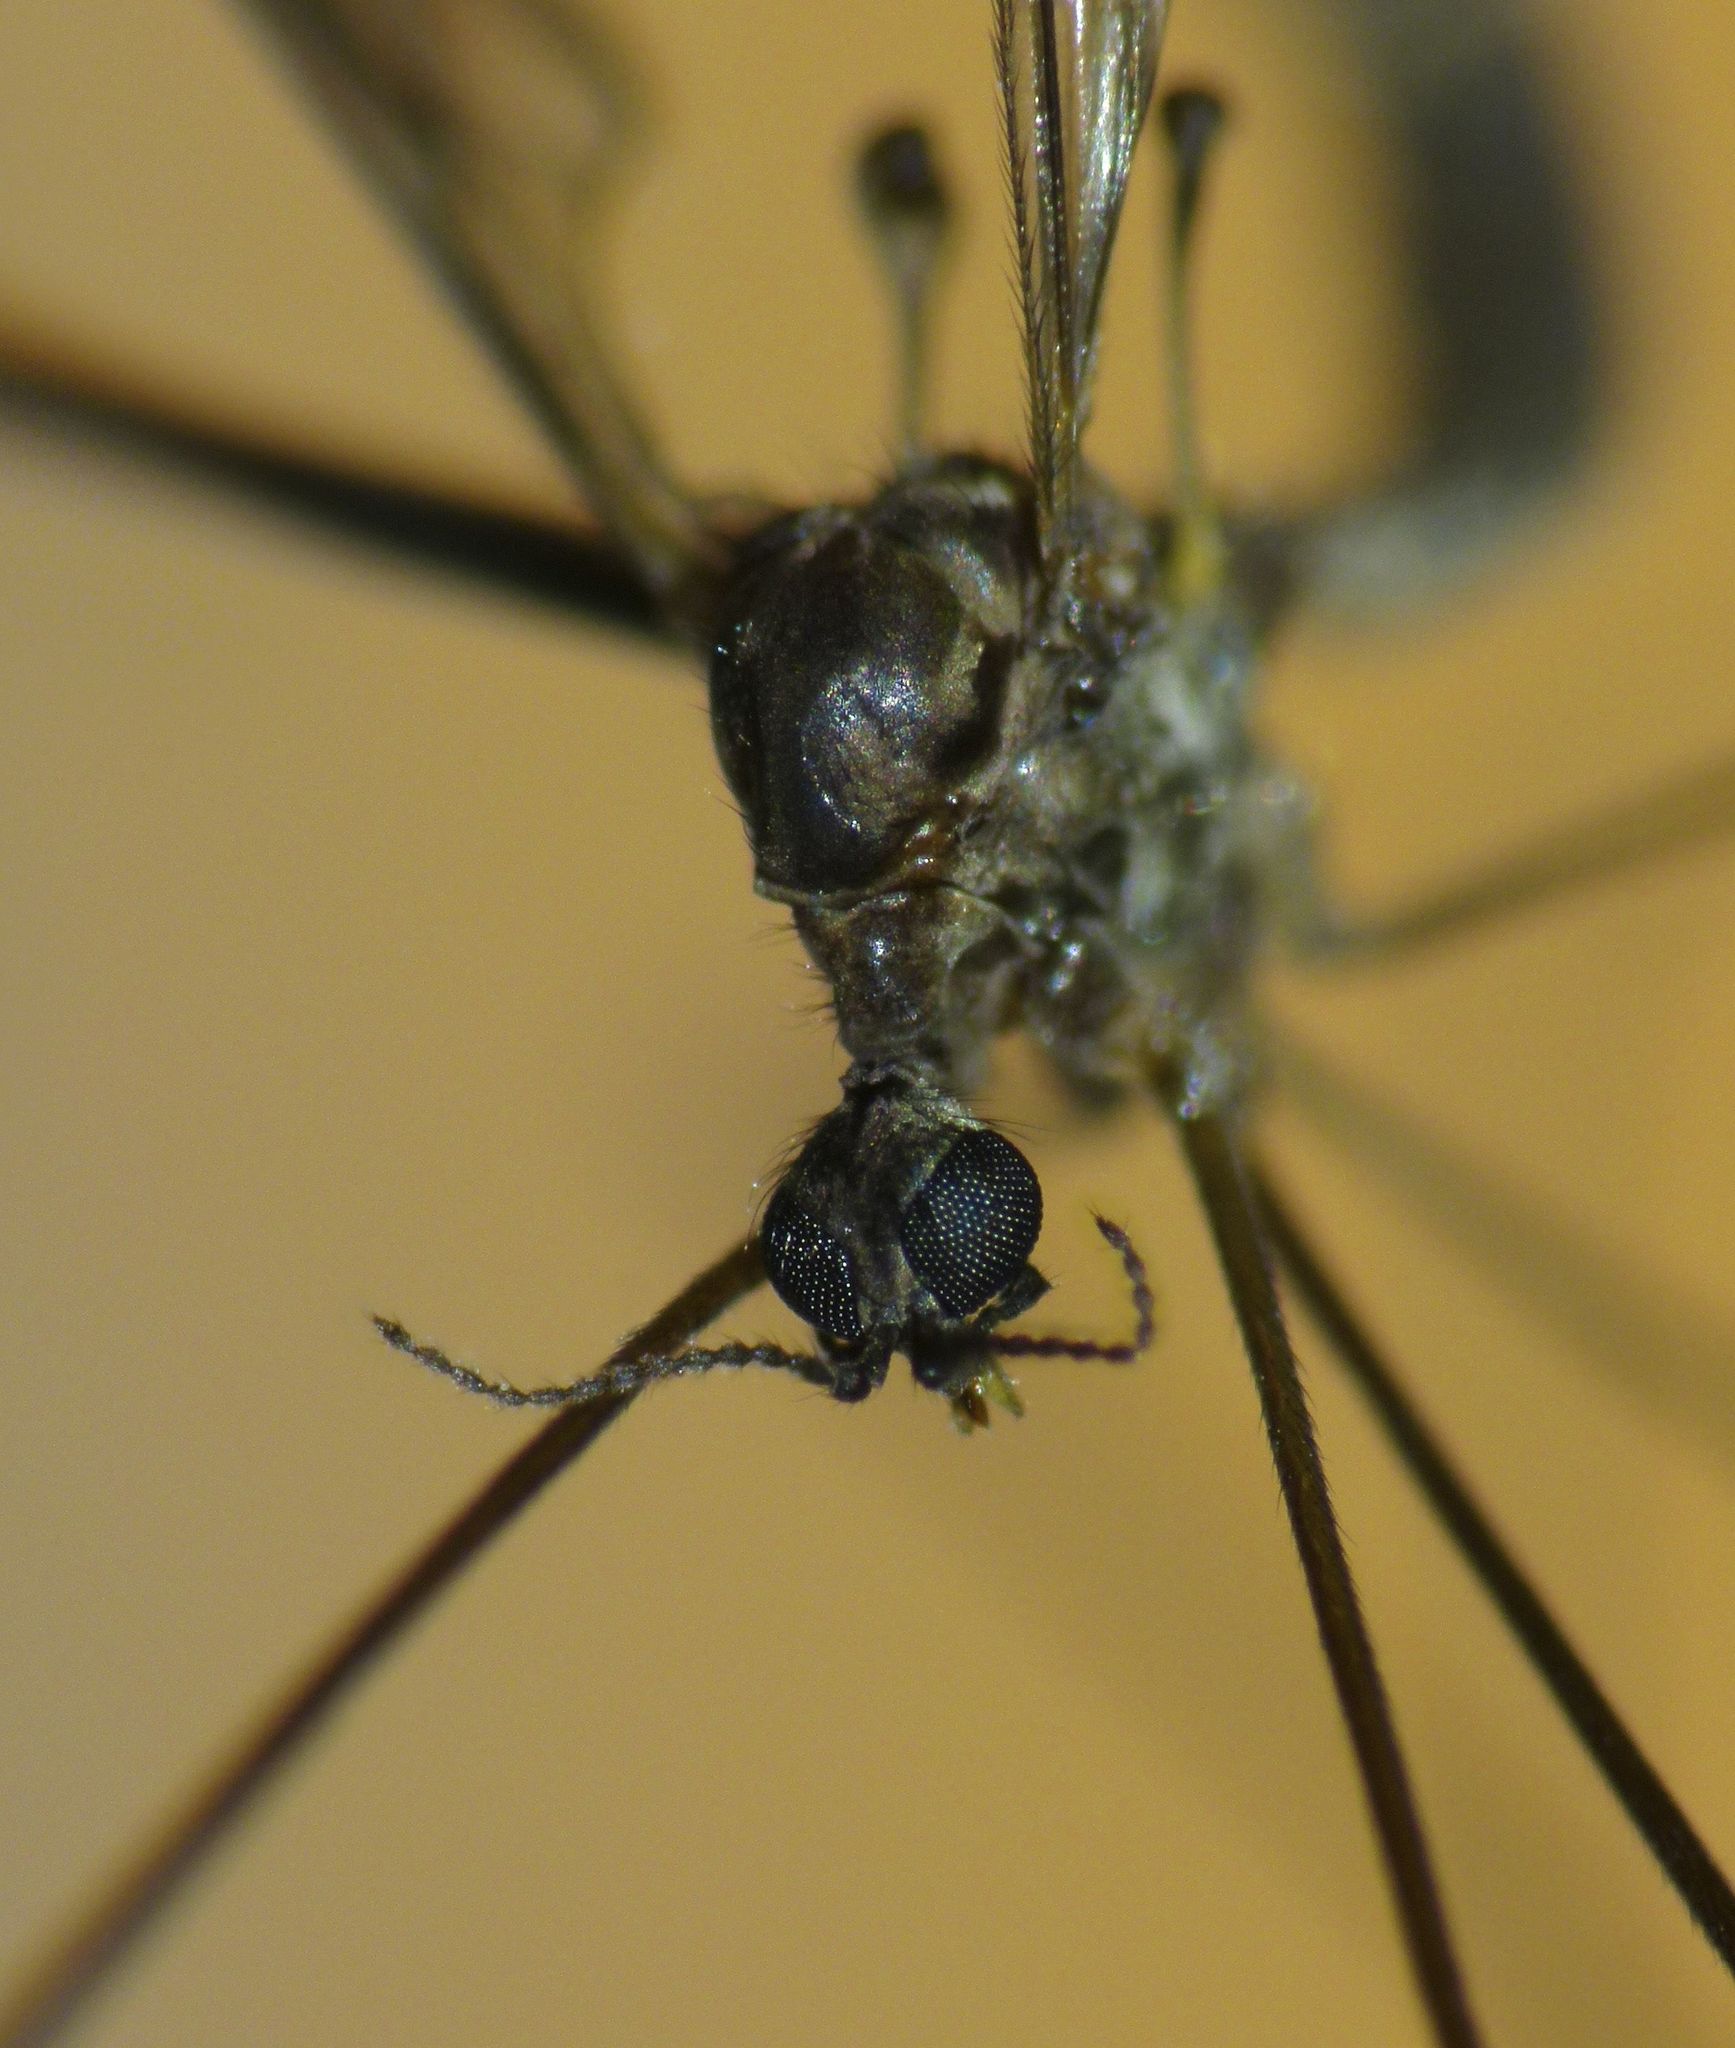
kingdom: Animalia
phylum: Arthropoda
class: Insecta
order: Diptera
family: Limoniidae
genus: Libnotes
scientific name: Libnotes falcata
